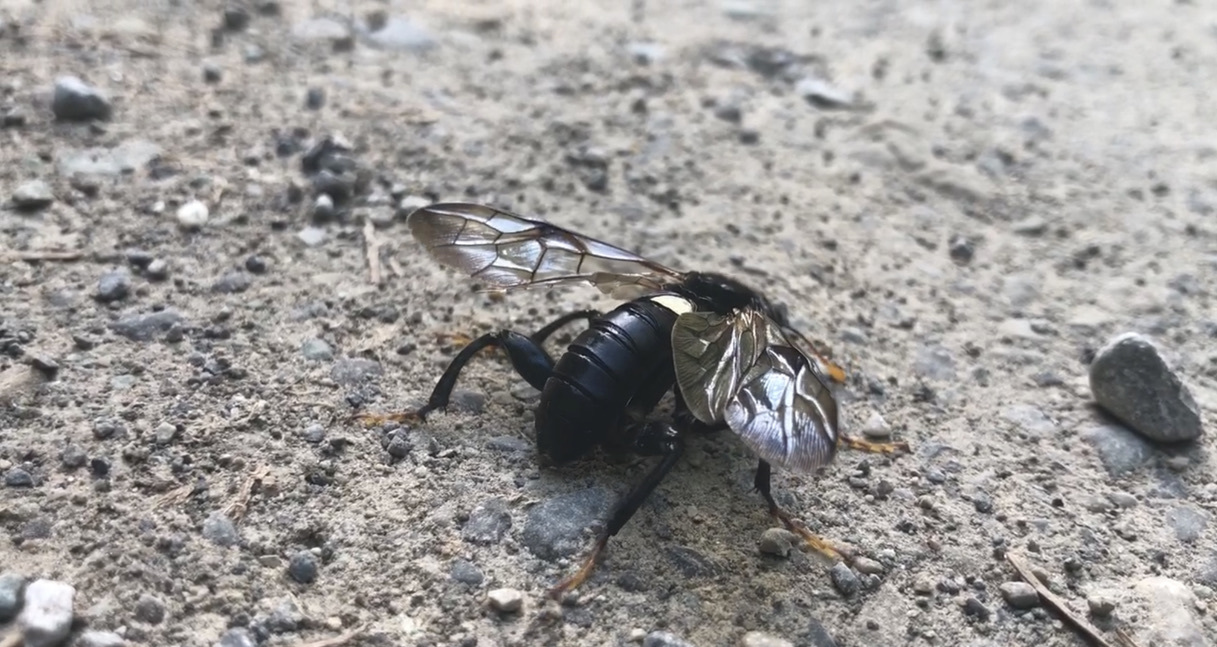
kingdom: Animalia
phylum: Arthropoda
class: Insecta
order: Hymenoptera
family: Cimbicidae
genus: Cimbex
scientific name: Cimbex americana
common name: Elm sawfly
